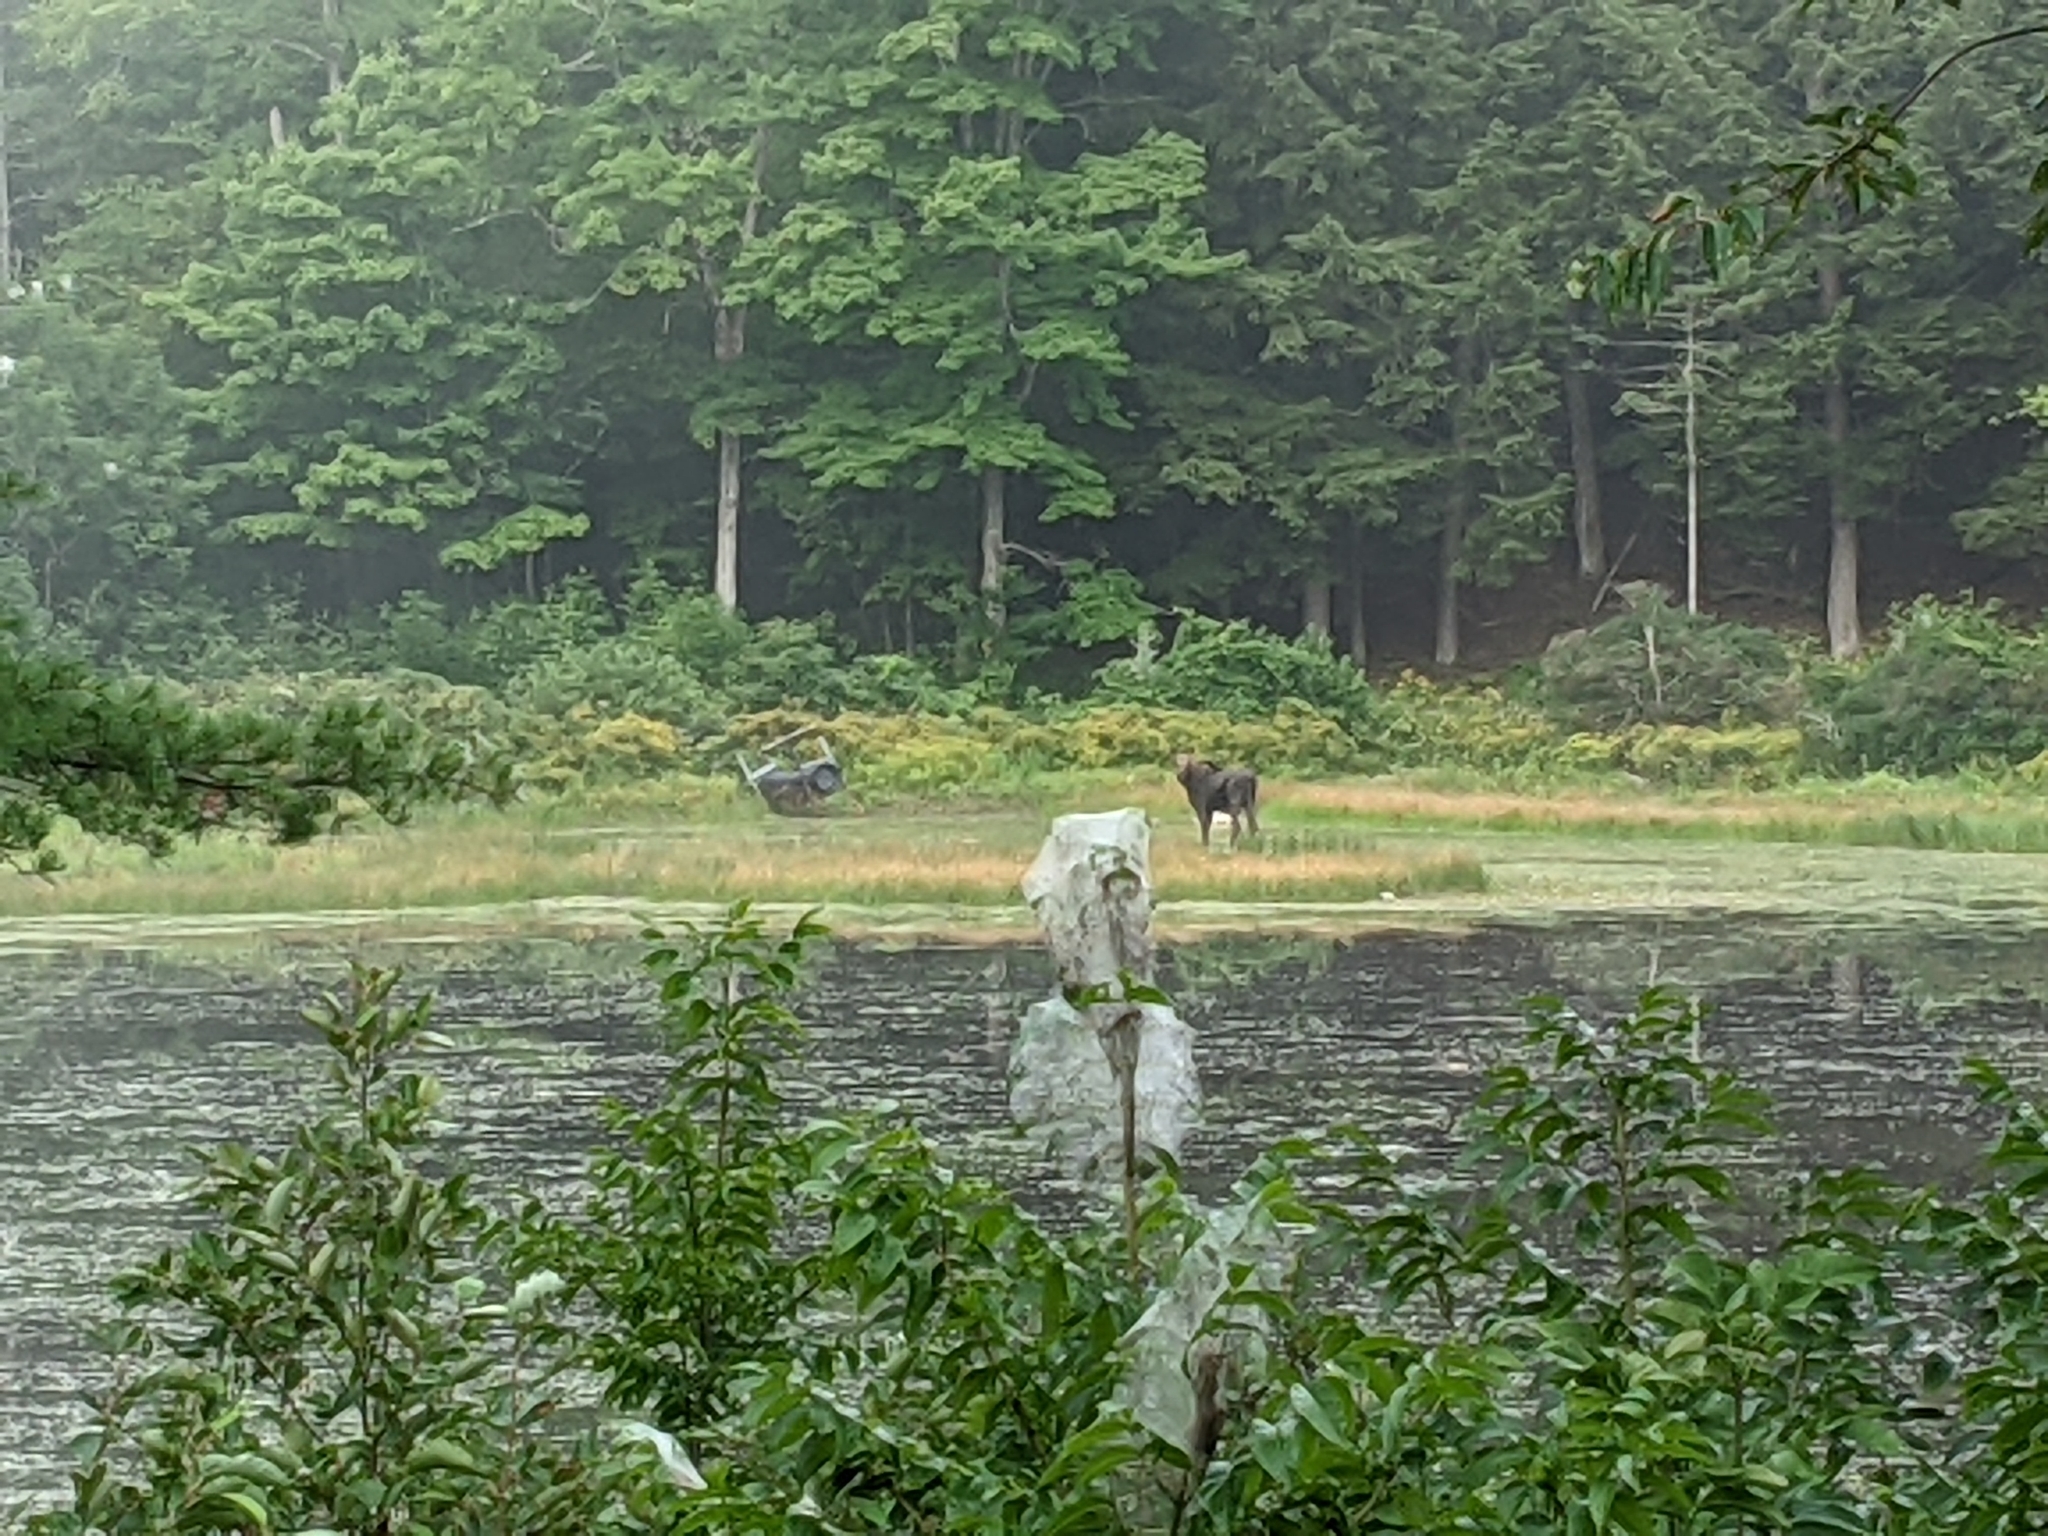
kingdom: Animalia
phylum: Chordata
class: Mammalia
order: Artiodactyla
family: Cervidae
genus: Alces
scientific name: Alces alces
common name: Moose
